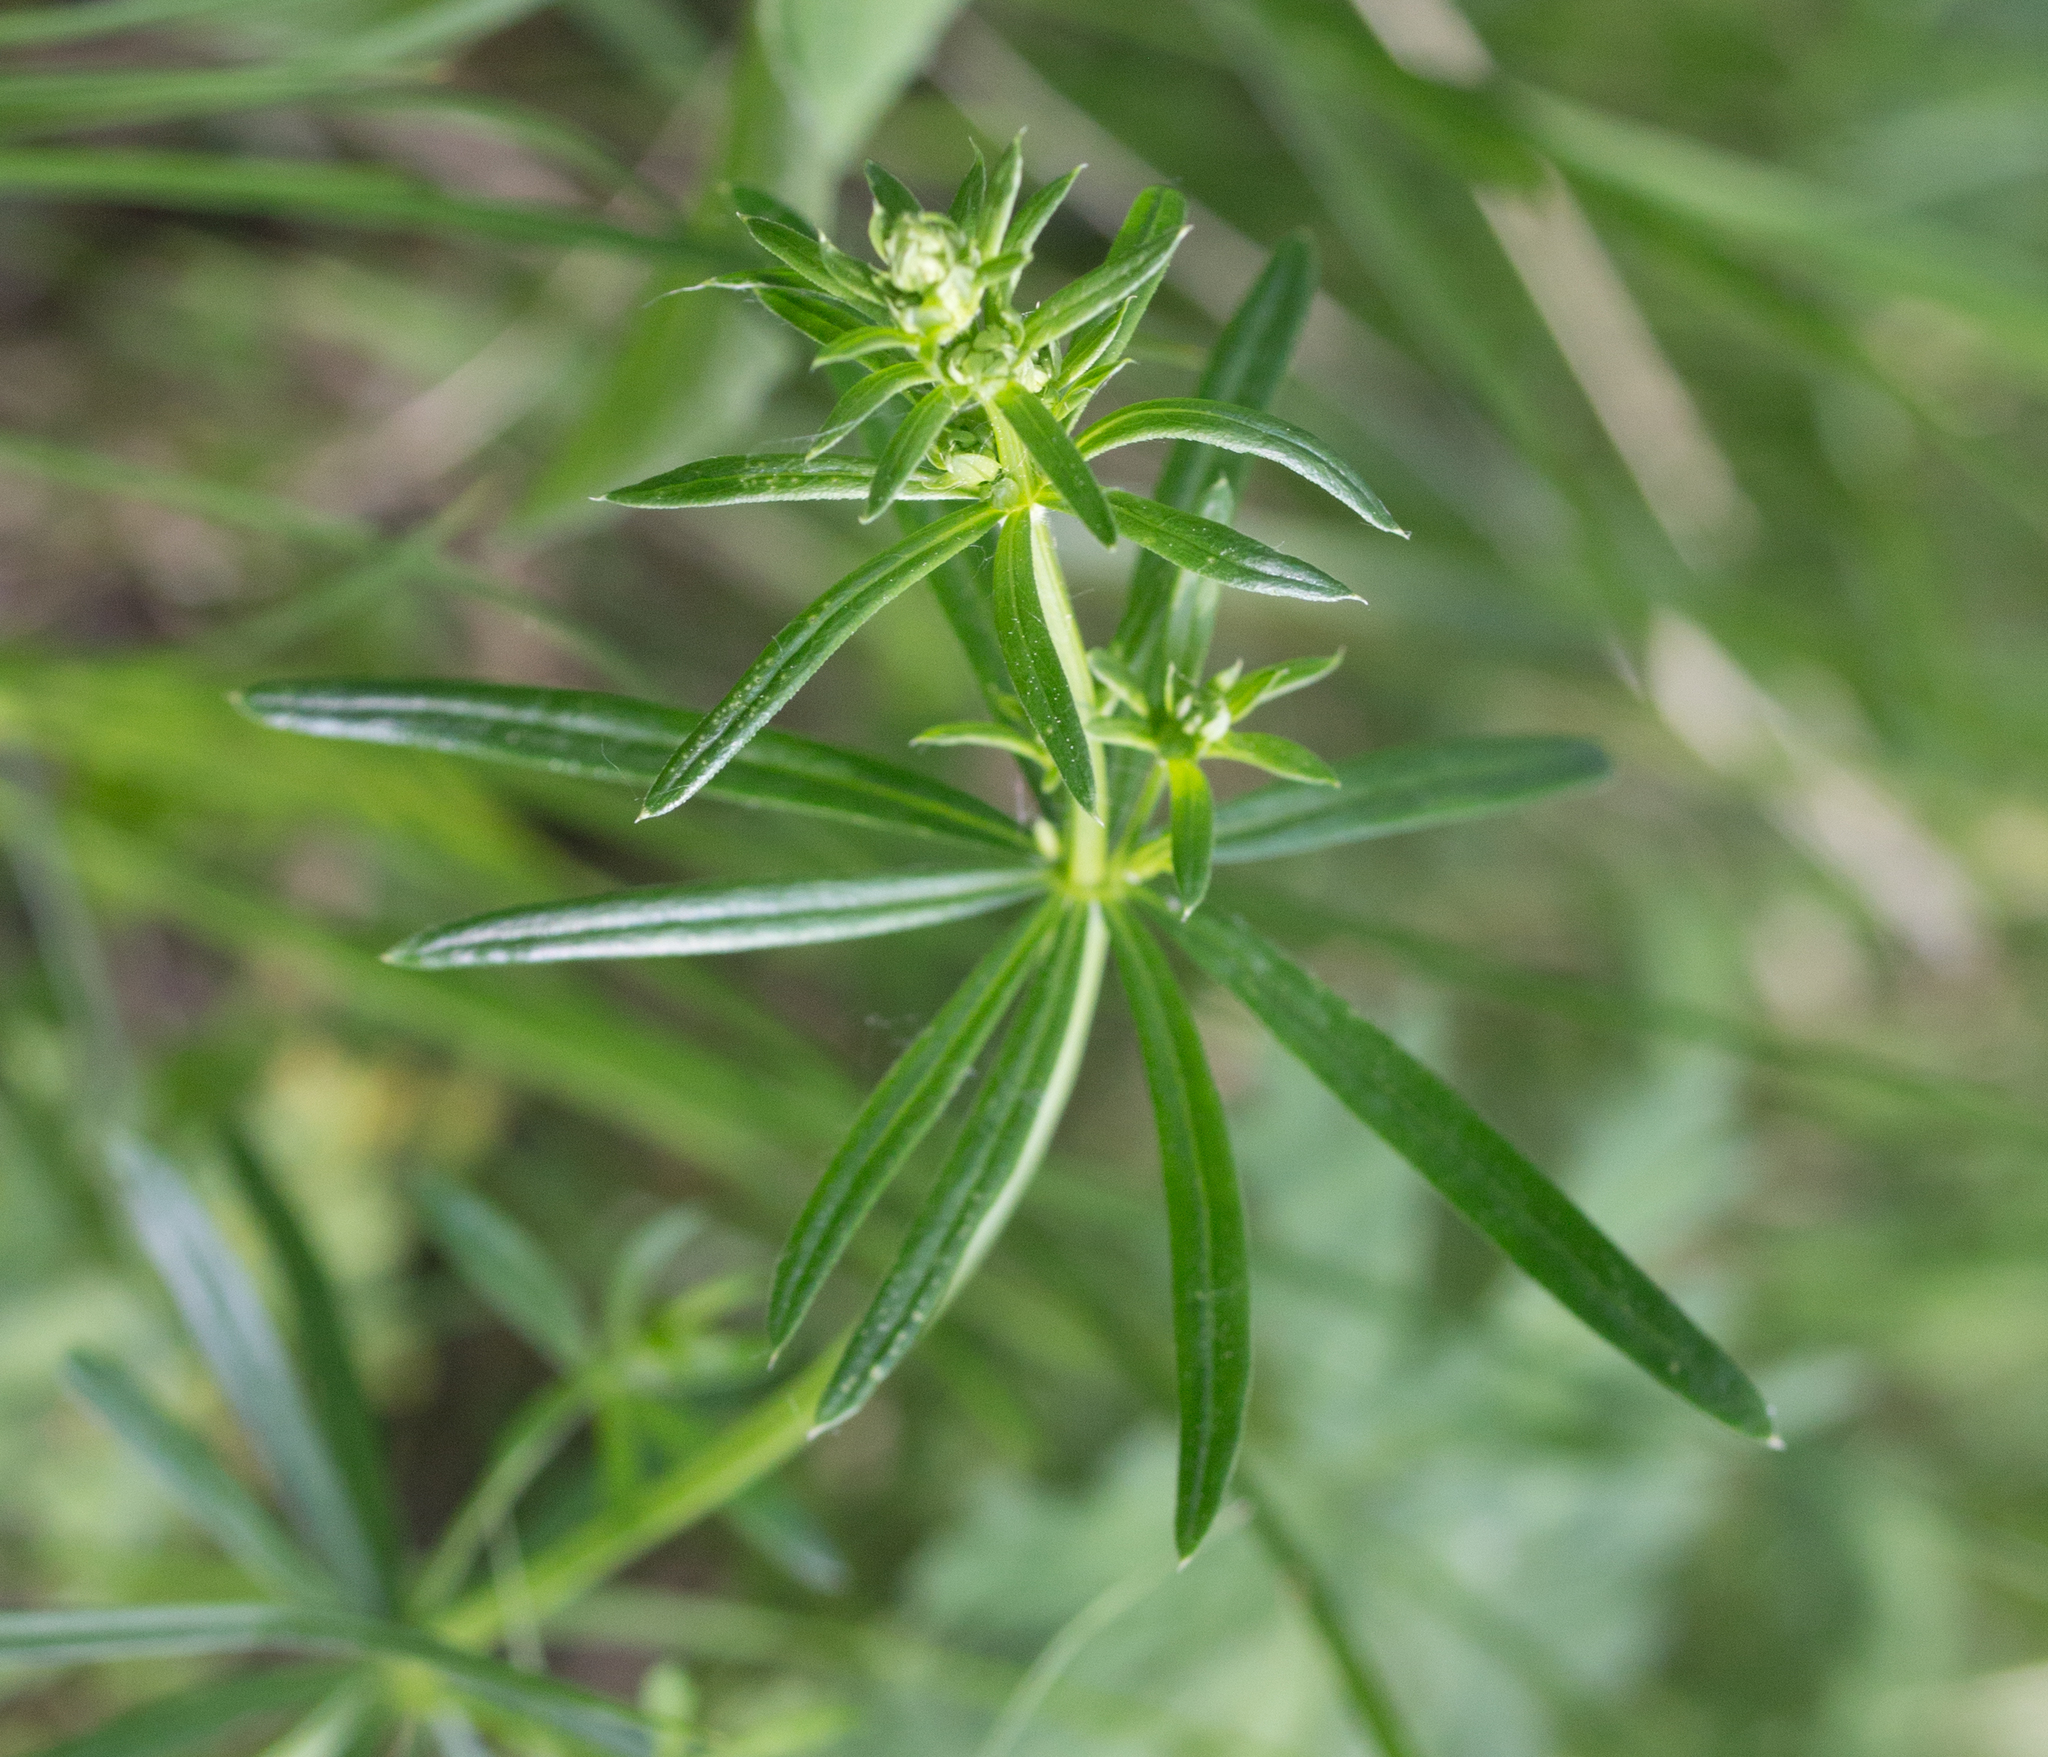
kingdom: Plantae
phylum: Tracheophyta
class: Magnoliopsida
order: Gentianales
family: Rubiaceae
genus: Galium
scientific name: Galium mollugo
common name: Hedge bedstraw
